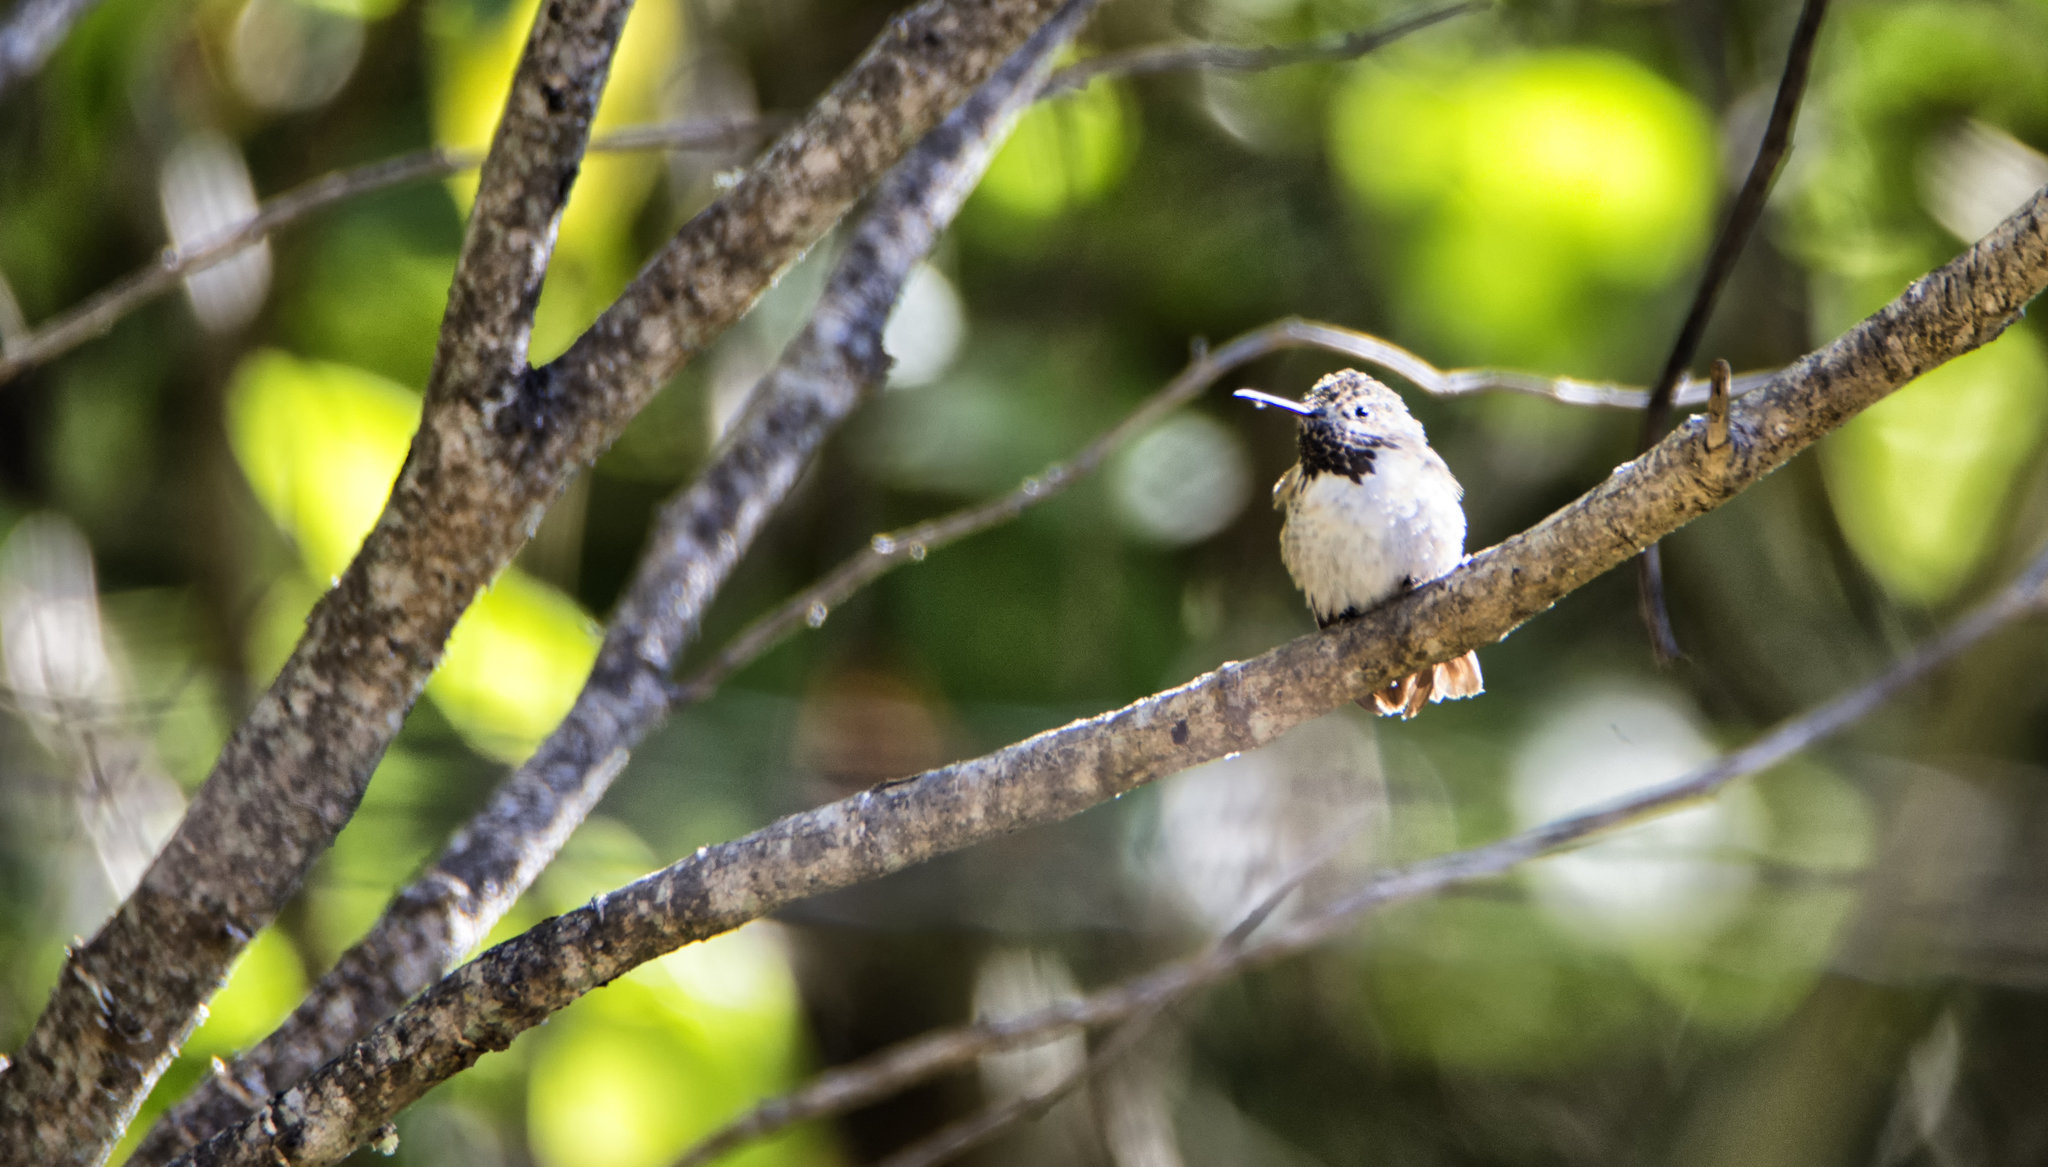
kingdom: Animalia
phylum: Chordata
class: Aves
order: Apodiformes
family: Trochilidae
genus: Selasphorus
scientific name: Selasphorus calliope
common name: Calliope hummingbird
